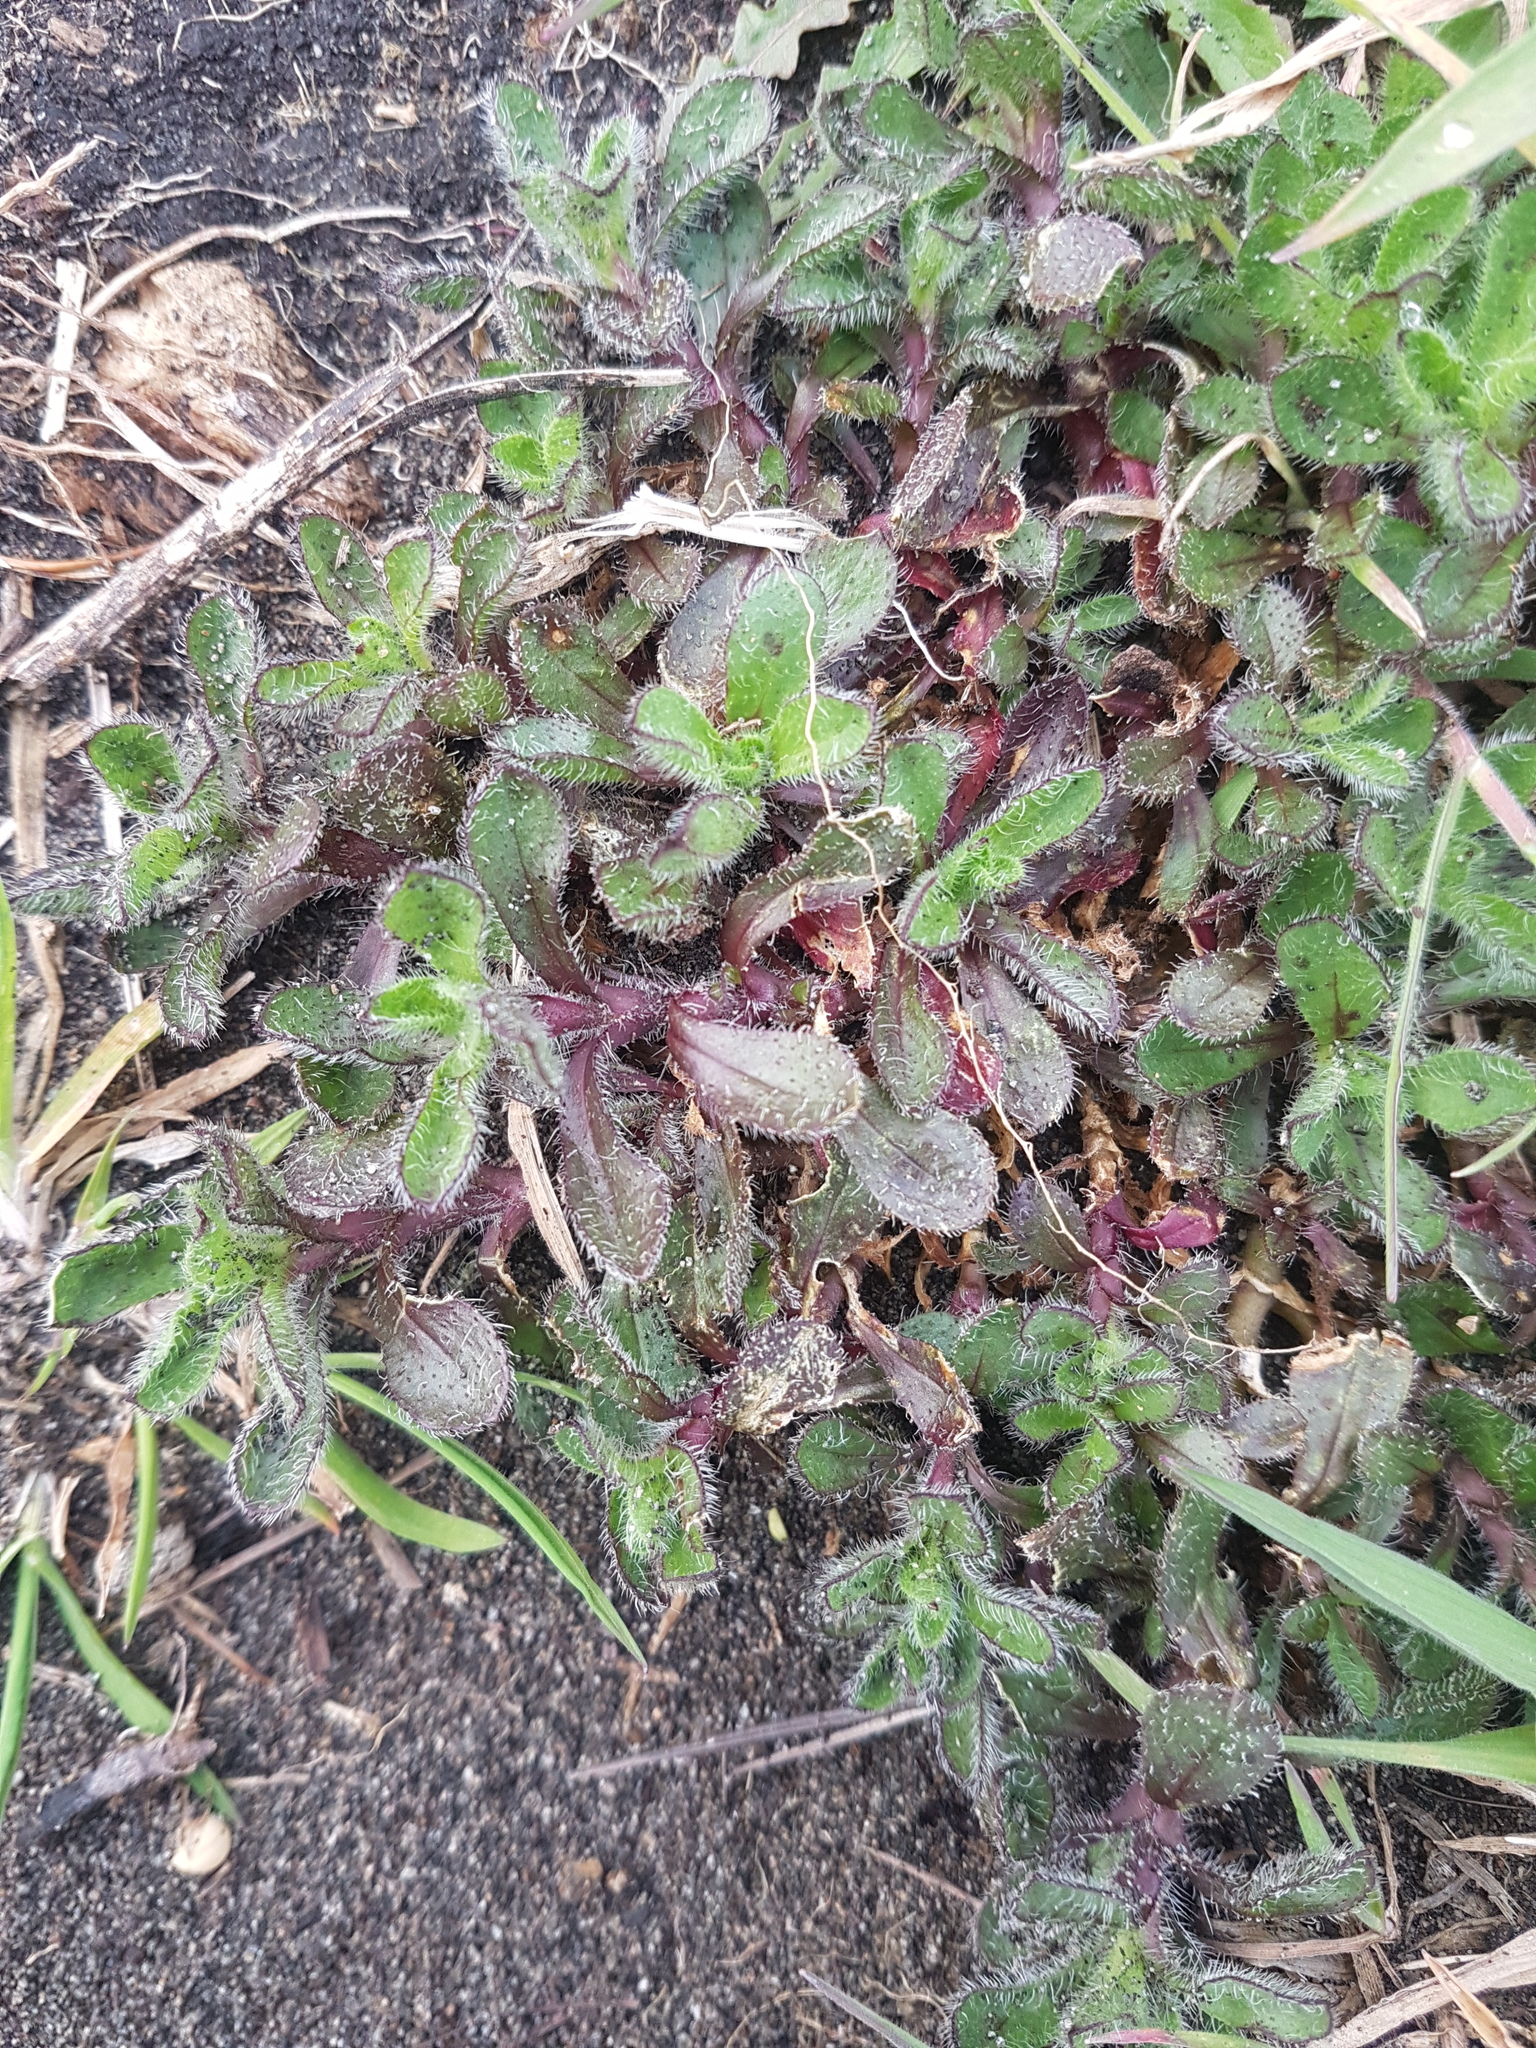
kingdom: Plantae
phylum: Tracheophyta
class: Magnoliopsida
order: Caryophyllales
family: Caryophyllaceae
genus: Cerastium
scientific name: Cerastium fontanum
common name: Common mouse-ear
